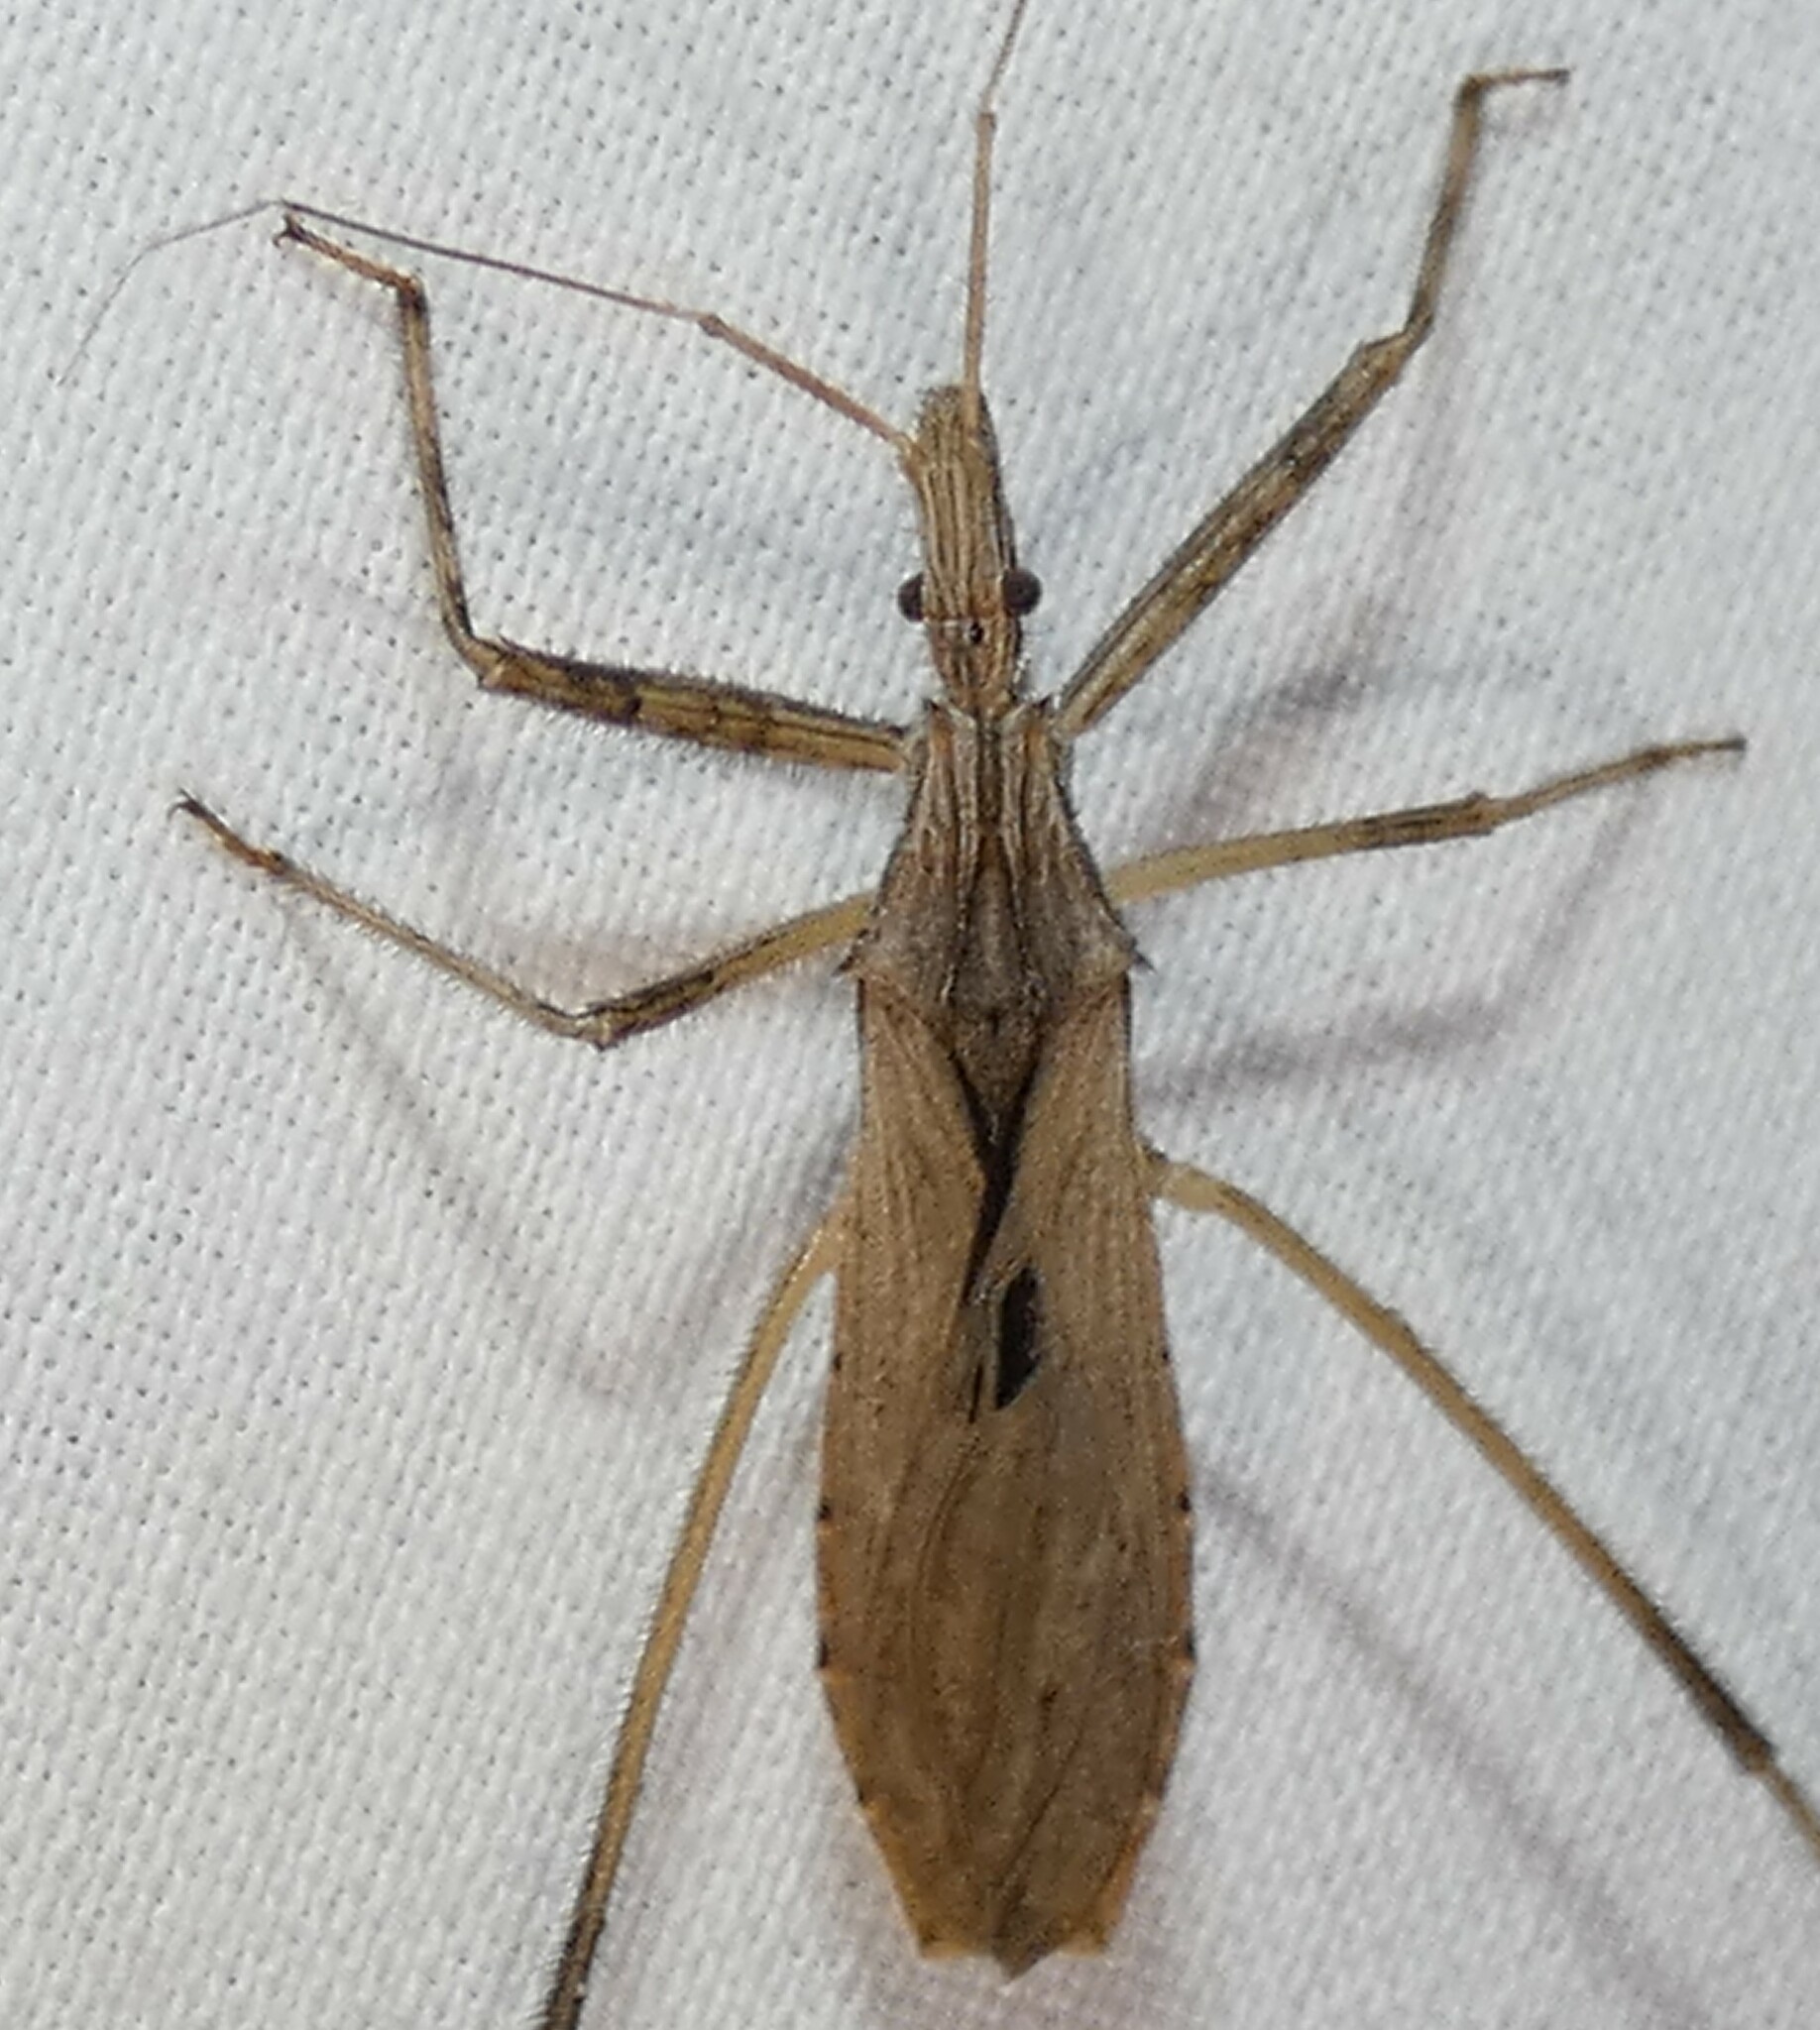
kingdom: Animalia
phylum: Arthropoda
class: Insecta
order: Hemiptera
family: Reduviidae
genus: Stenopoda
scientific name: Stenopoda spinulosa
